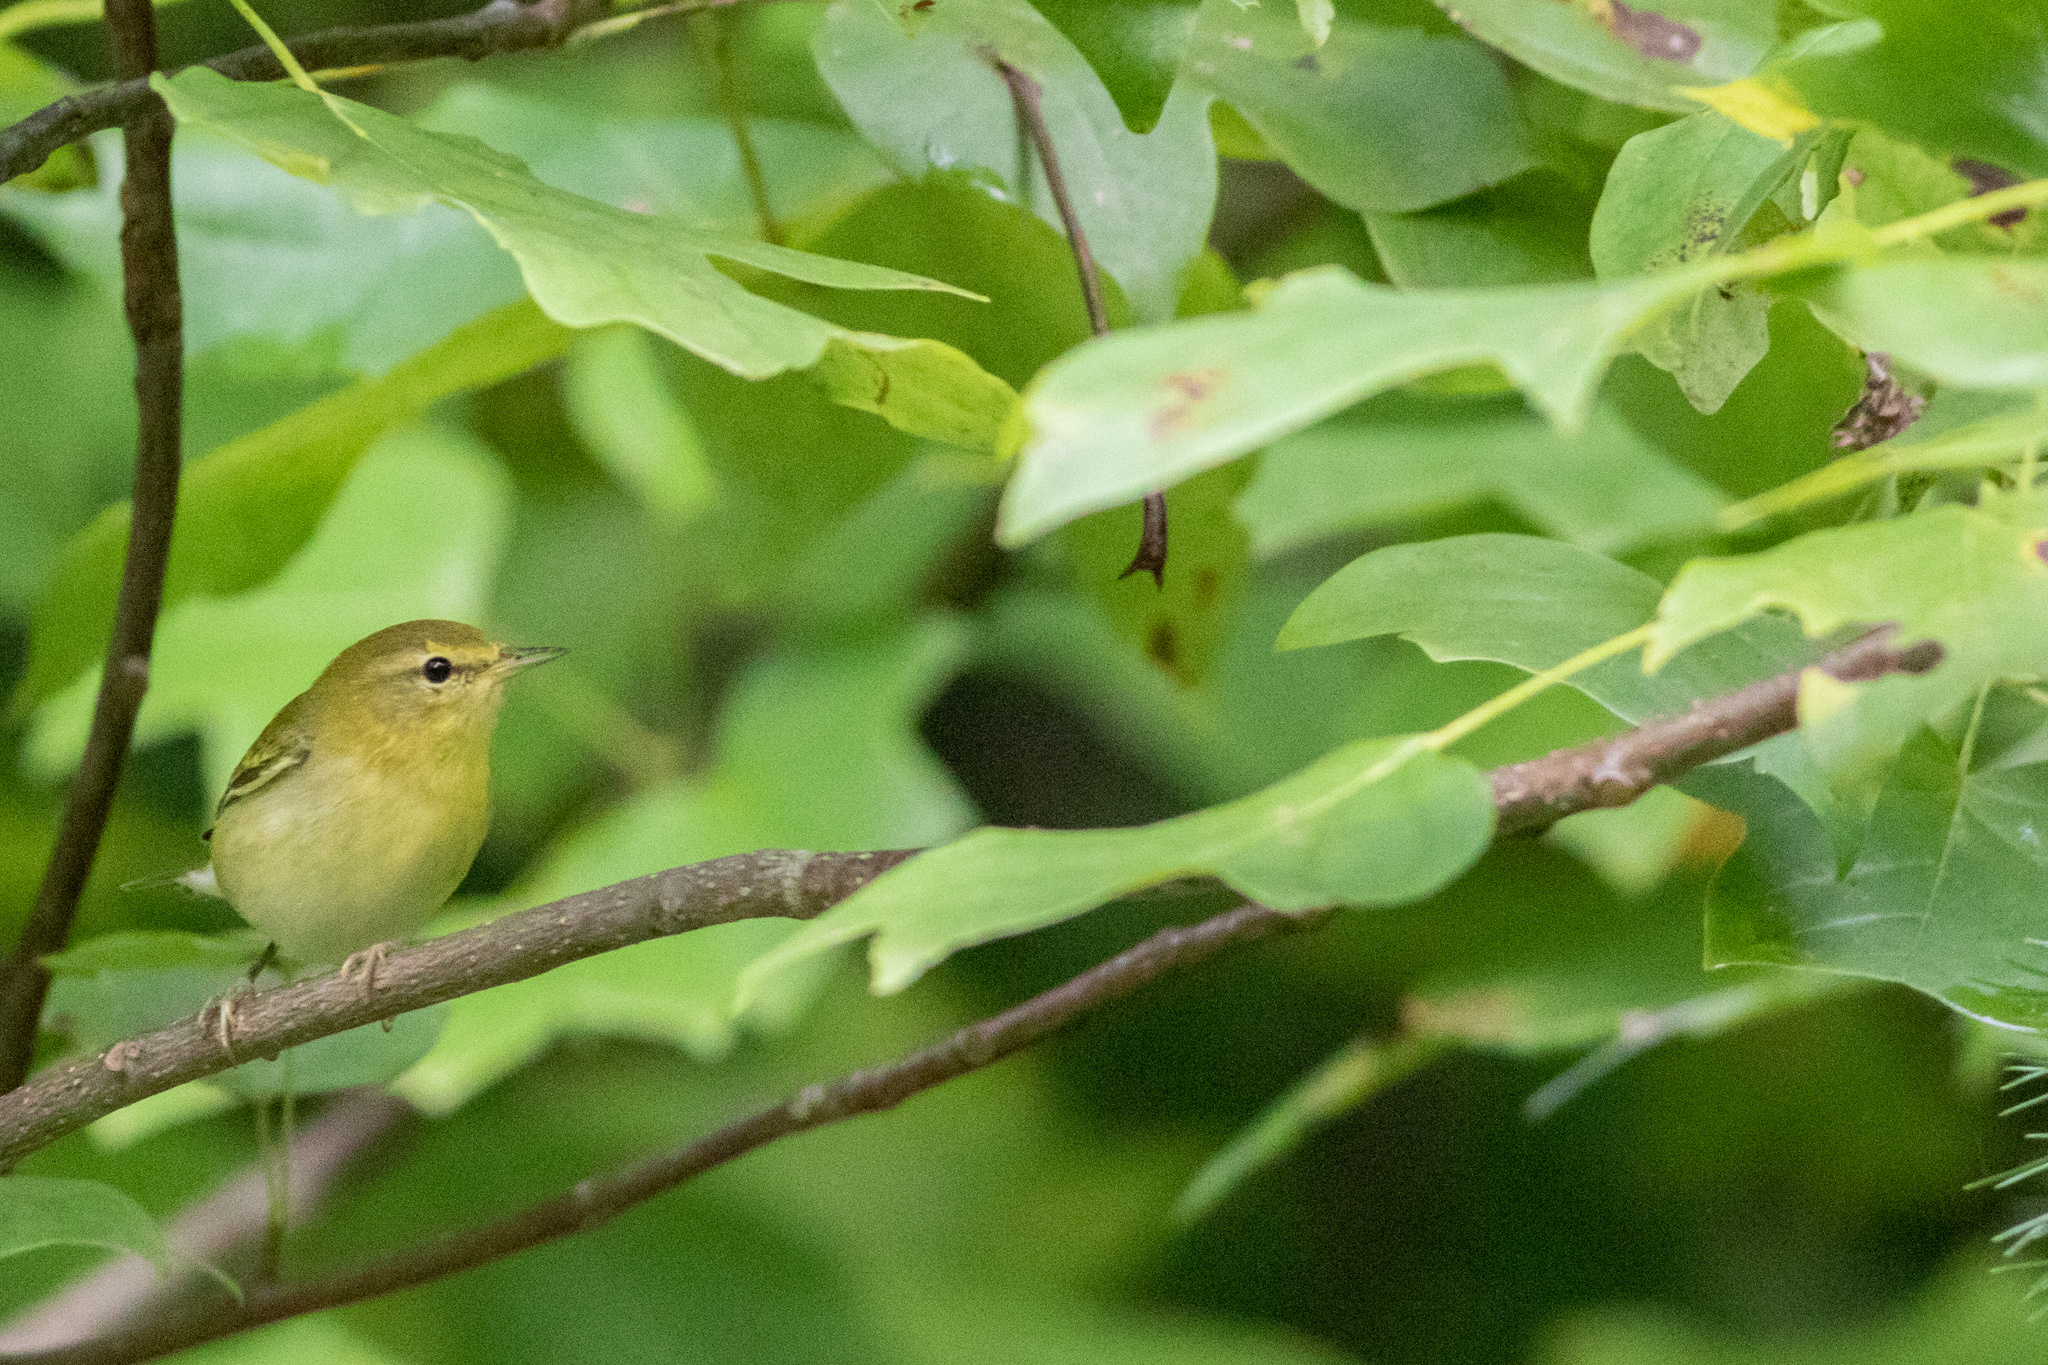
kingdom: Animalia
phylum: Chordata
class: Aves
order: Passeriformes
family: Parulidae
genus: Leiothlypis
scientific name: Leiothlypis peregrina
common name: Tennessee warbler
